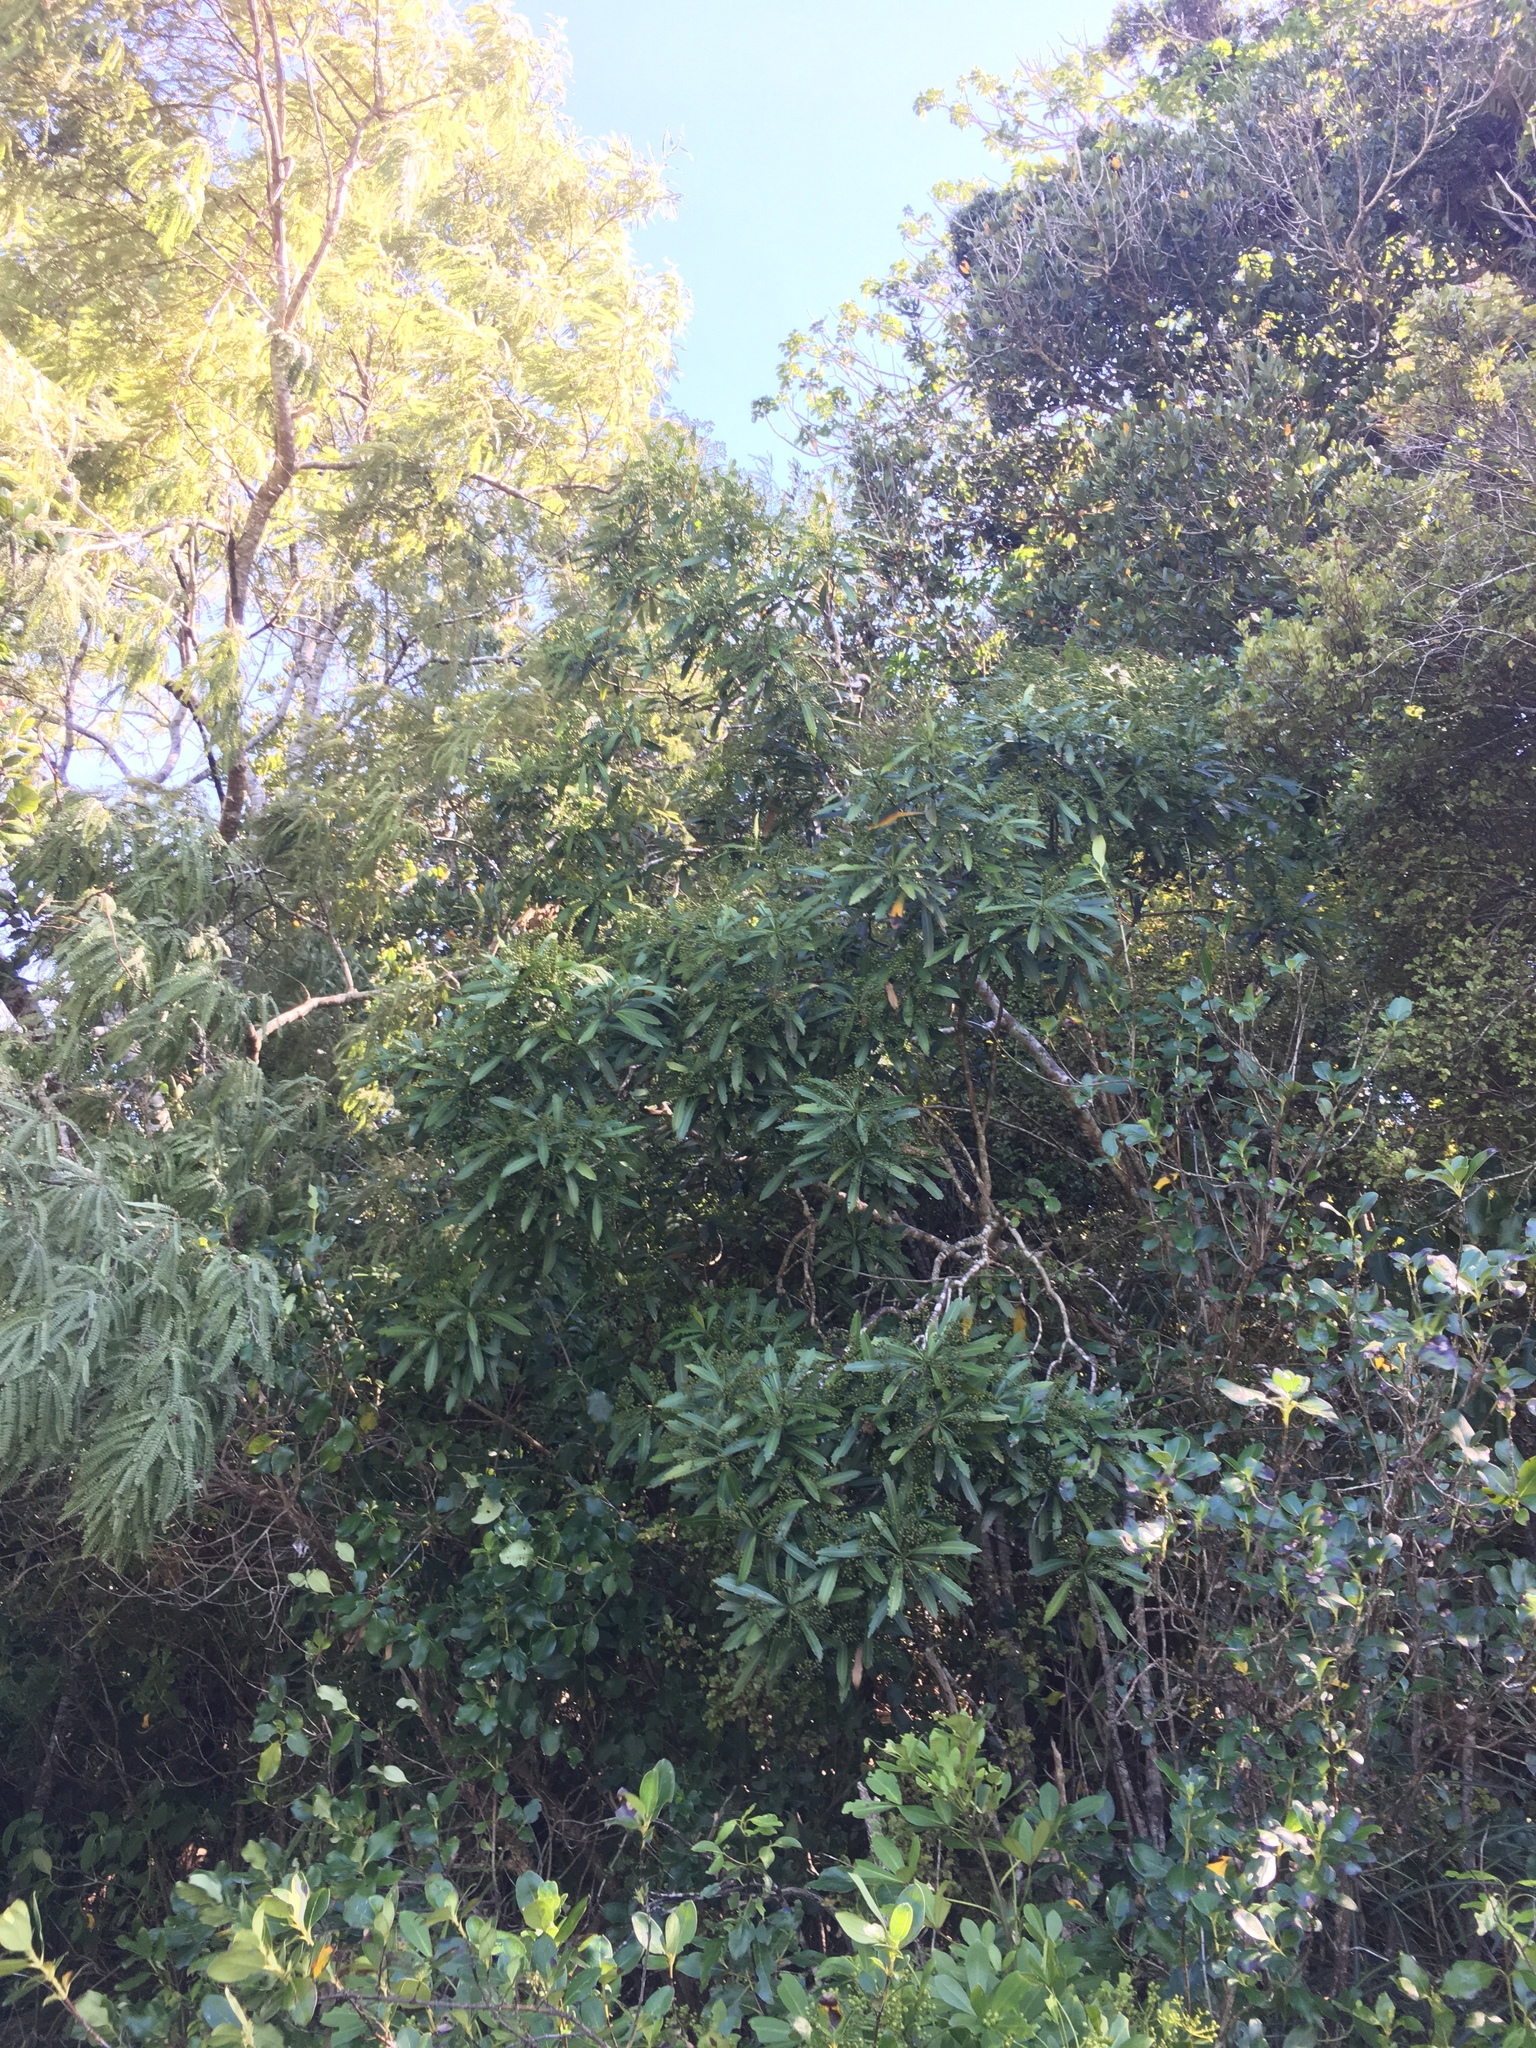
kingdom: Plantae
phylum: Tracheophyta
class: Magnoliopsida
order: Apiales
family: Araliaceae
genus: Pseudopanax
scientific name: Pseudopanax crassifolius
